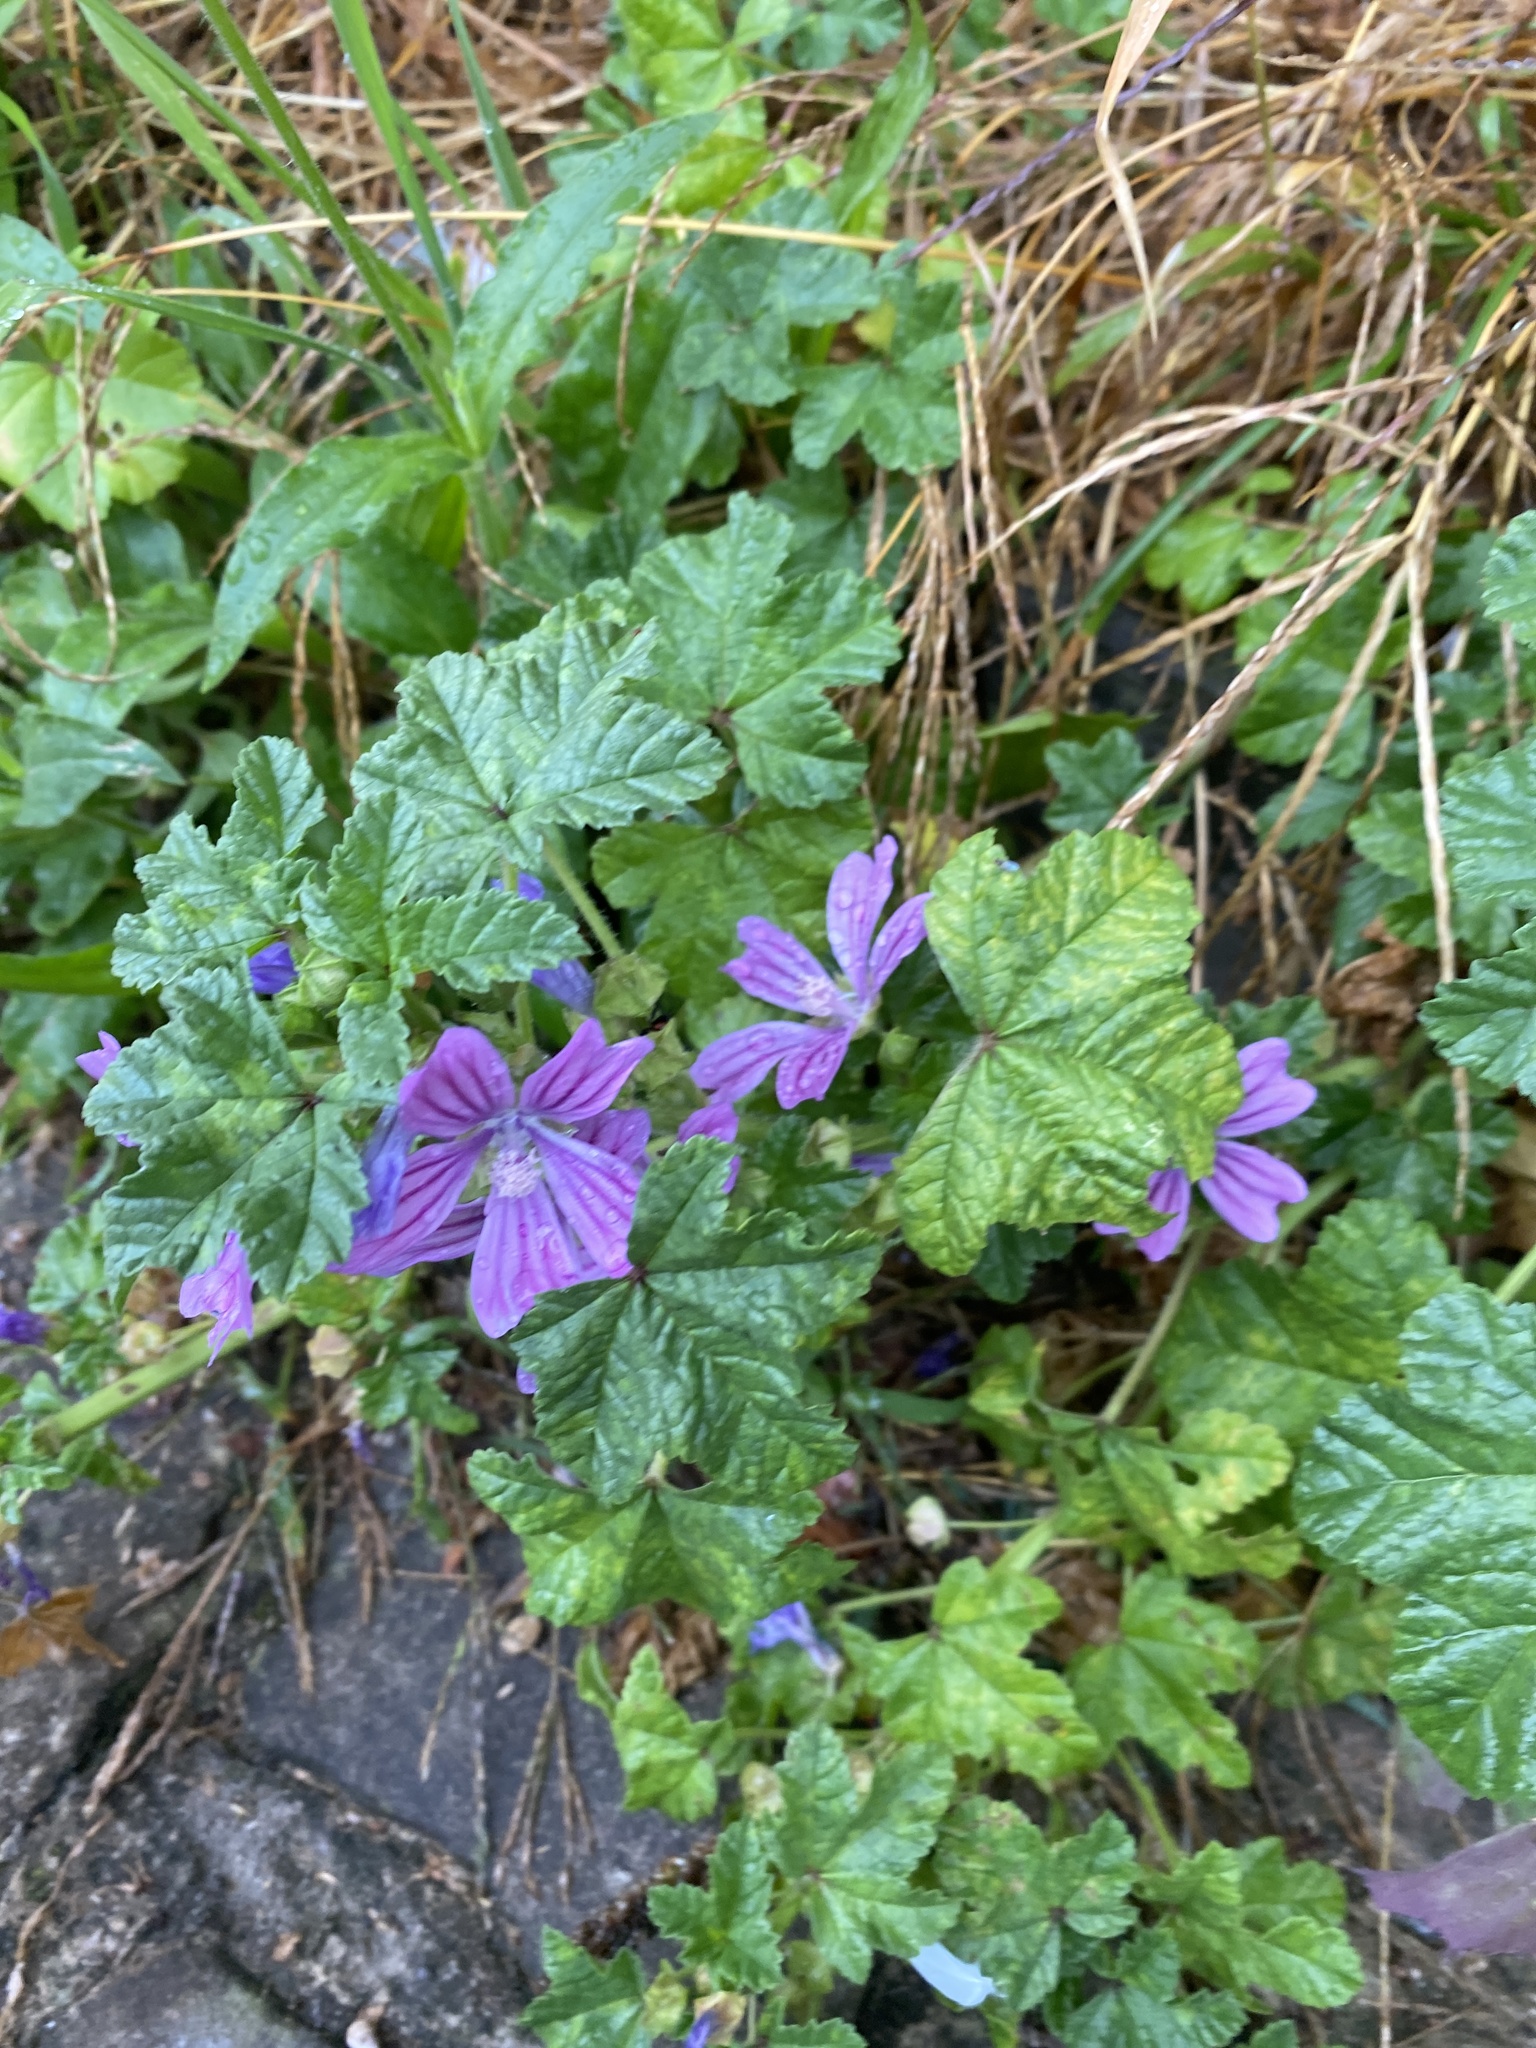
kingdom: Plantae
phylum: Tracheophyta
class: Magnoliopsida
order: Malvales
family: Malvaceae
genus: Malva
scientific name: Malva sylvestris
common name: Common mallow
